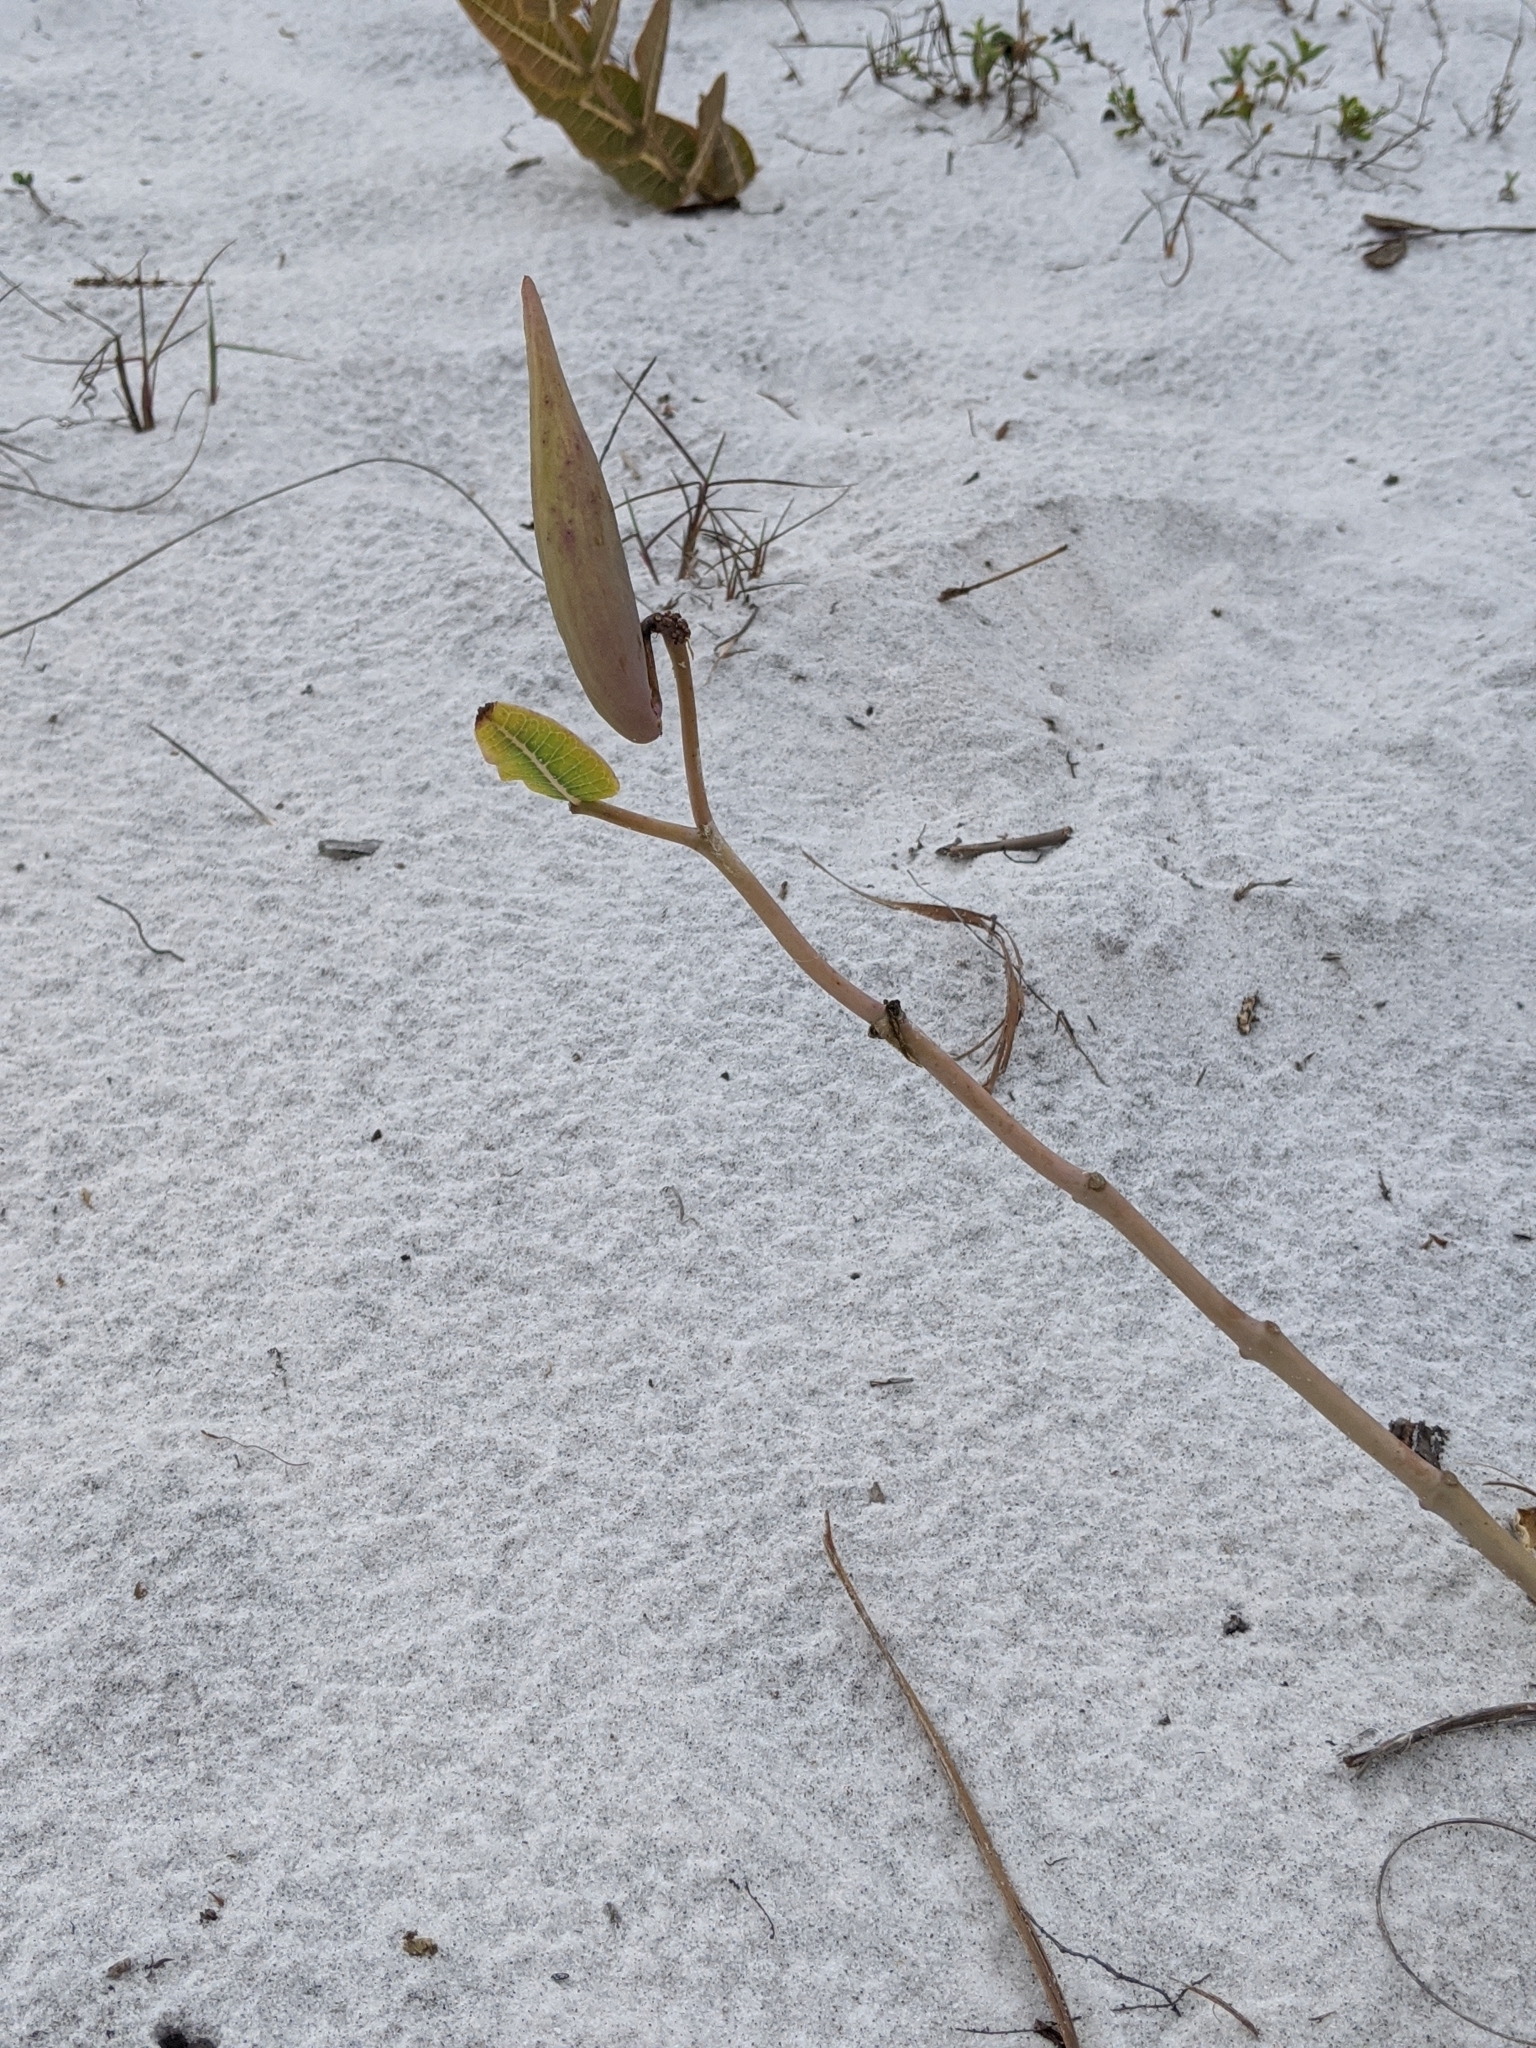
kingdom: Plantae
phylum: Tracheophyta
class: Magnoliopsida
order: Gentianales
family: Apocynaceae
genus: Asclepias
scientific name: Asclepias humistrata
